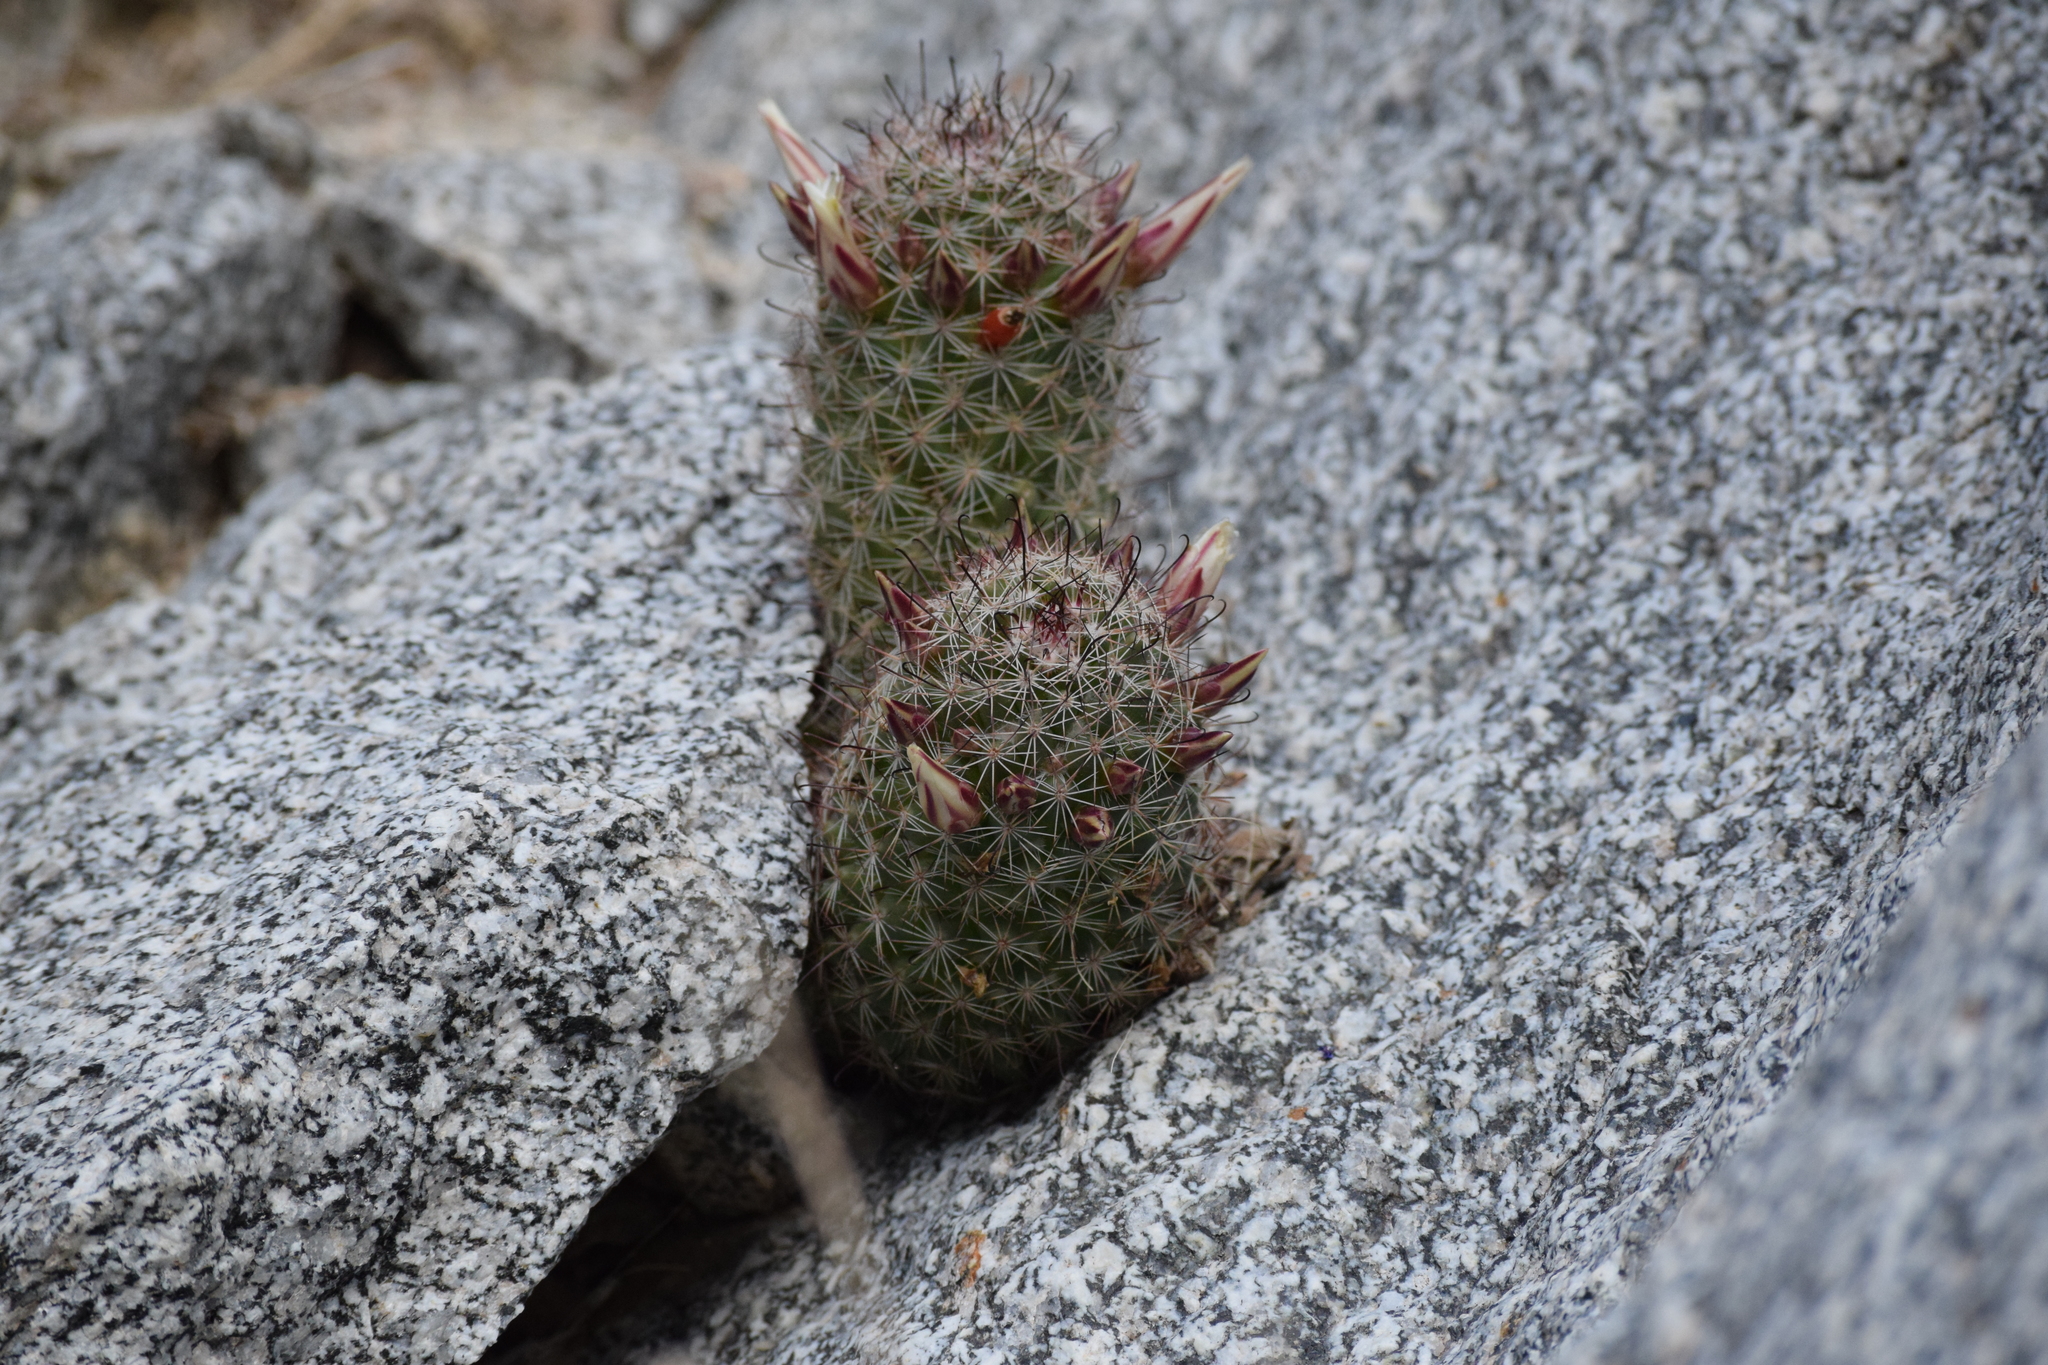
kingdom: Plantae
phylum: Tracheophyta
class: Magnoliopsida
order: Caryophyllales
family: Cactaceae
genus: Cochemiea
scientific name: Cochemiea dioica
